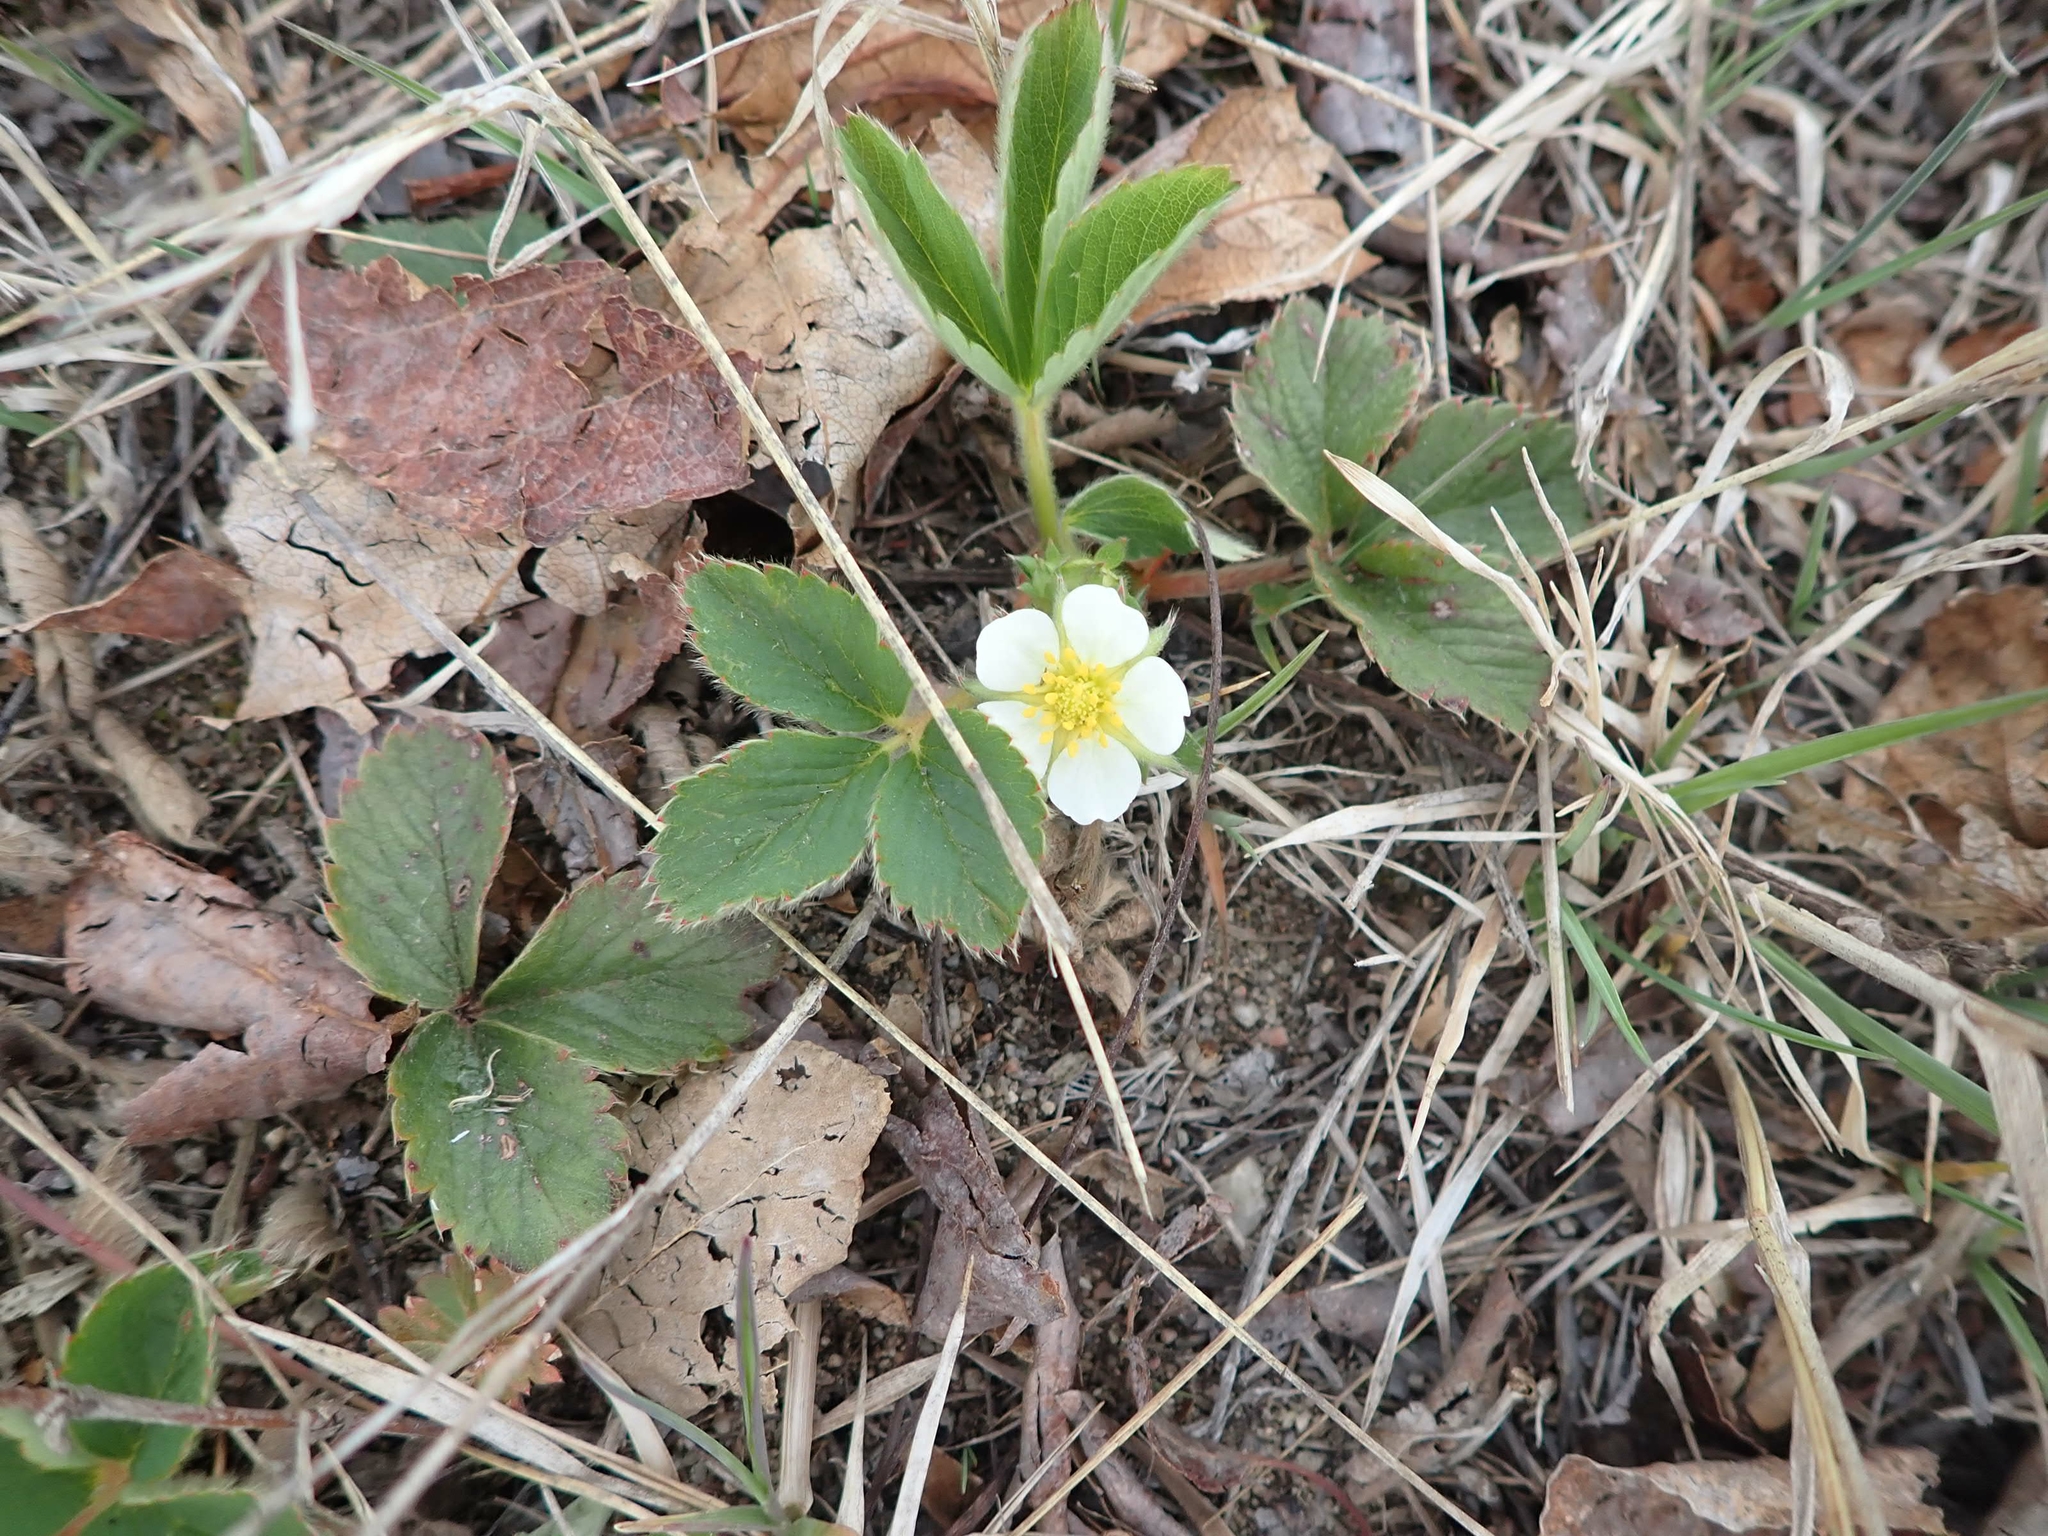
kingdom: Plantae
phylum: Tracheophyta
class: Magnoliopsida
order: Rosales
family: Rosaceae
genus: Fragaria
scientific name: Fragaria virginiana
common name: Thickleaved wild strawberry
